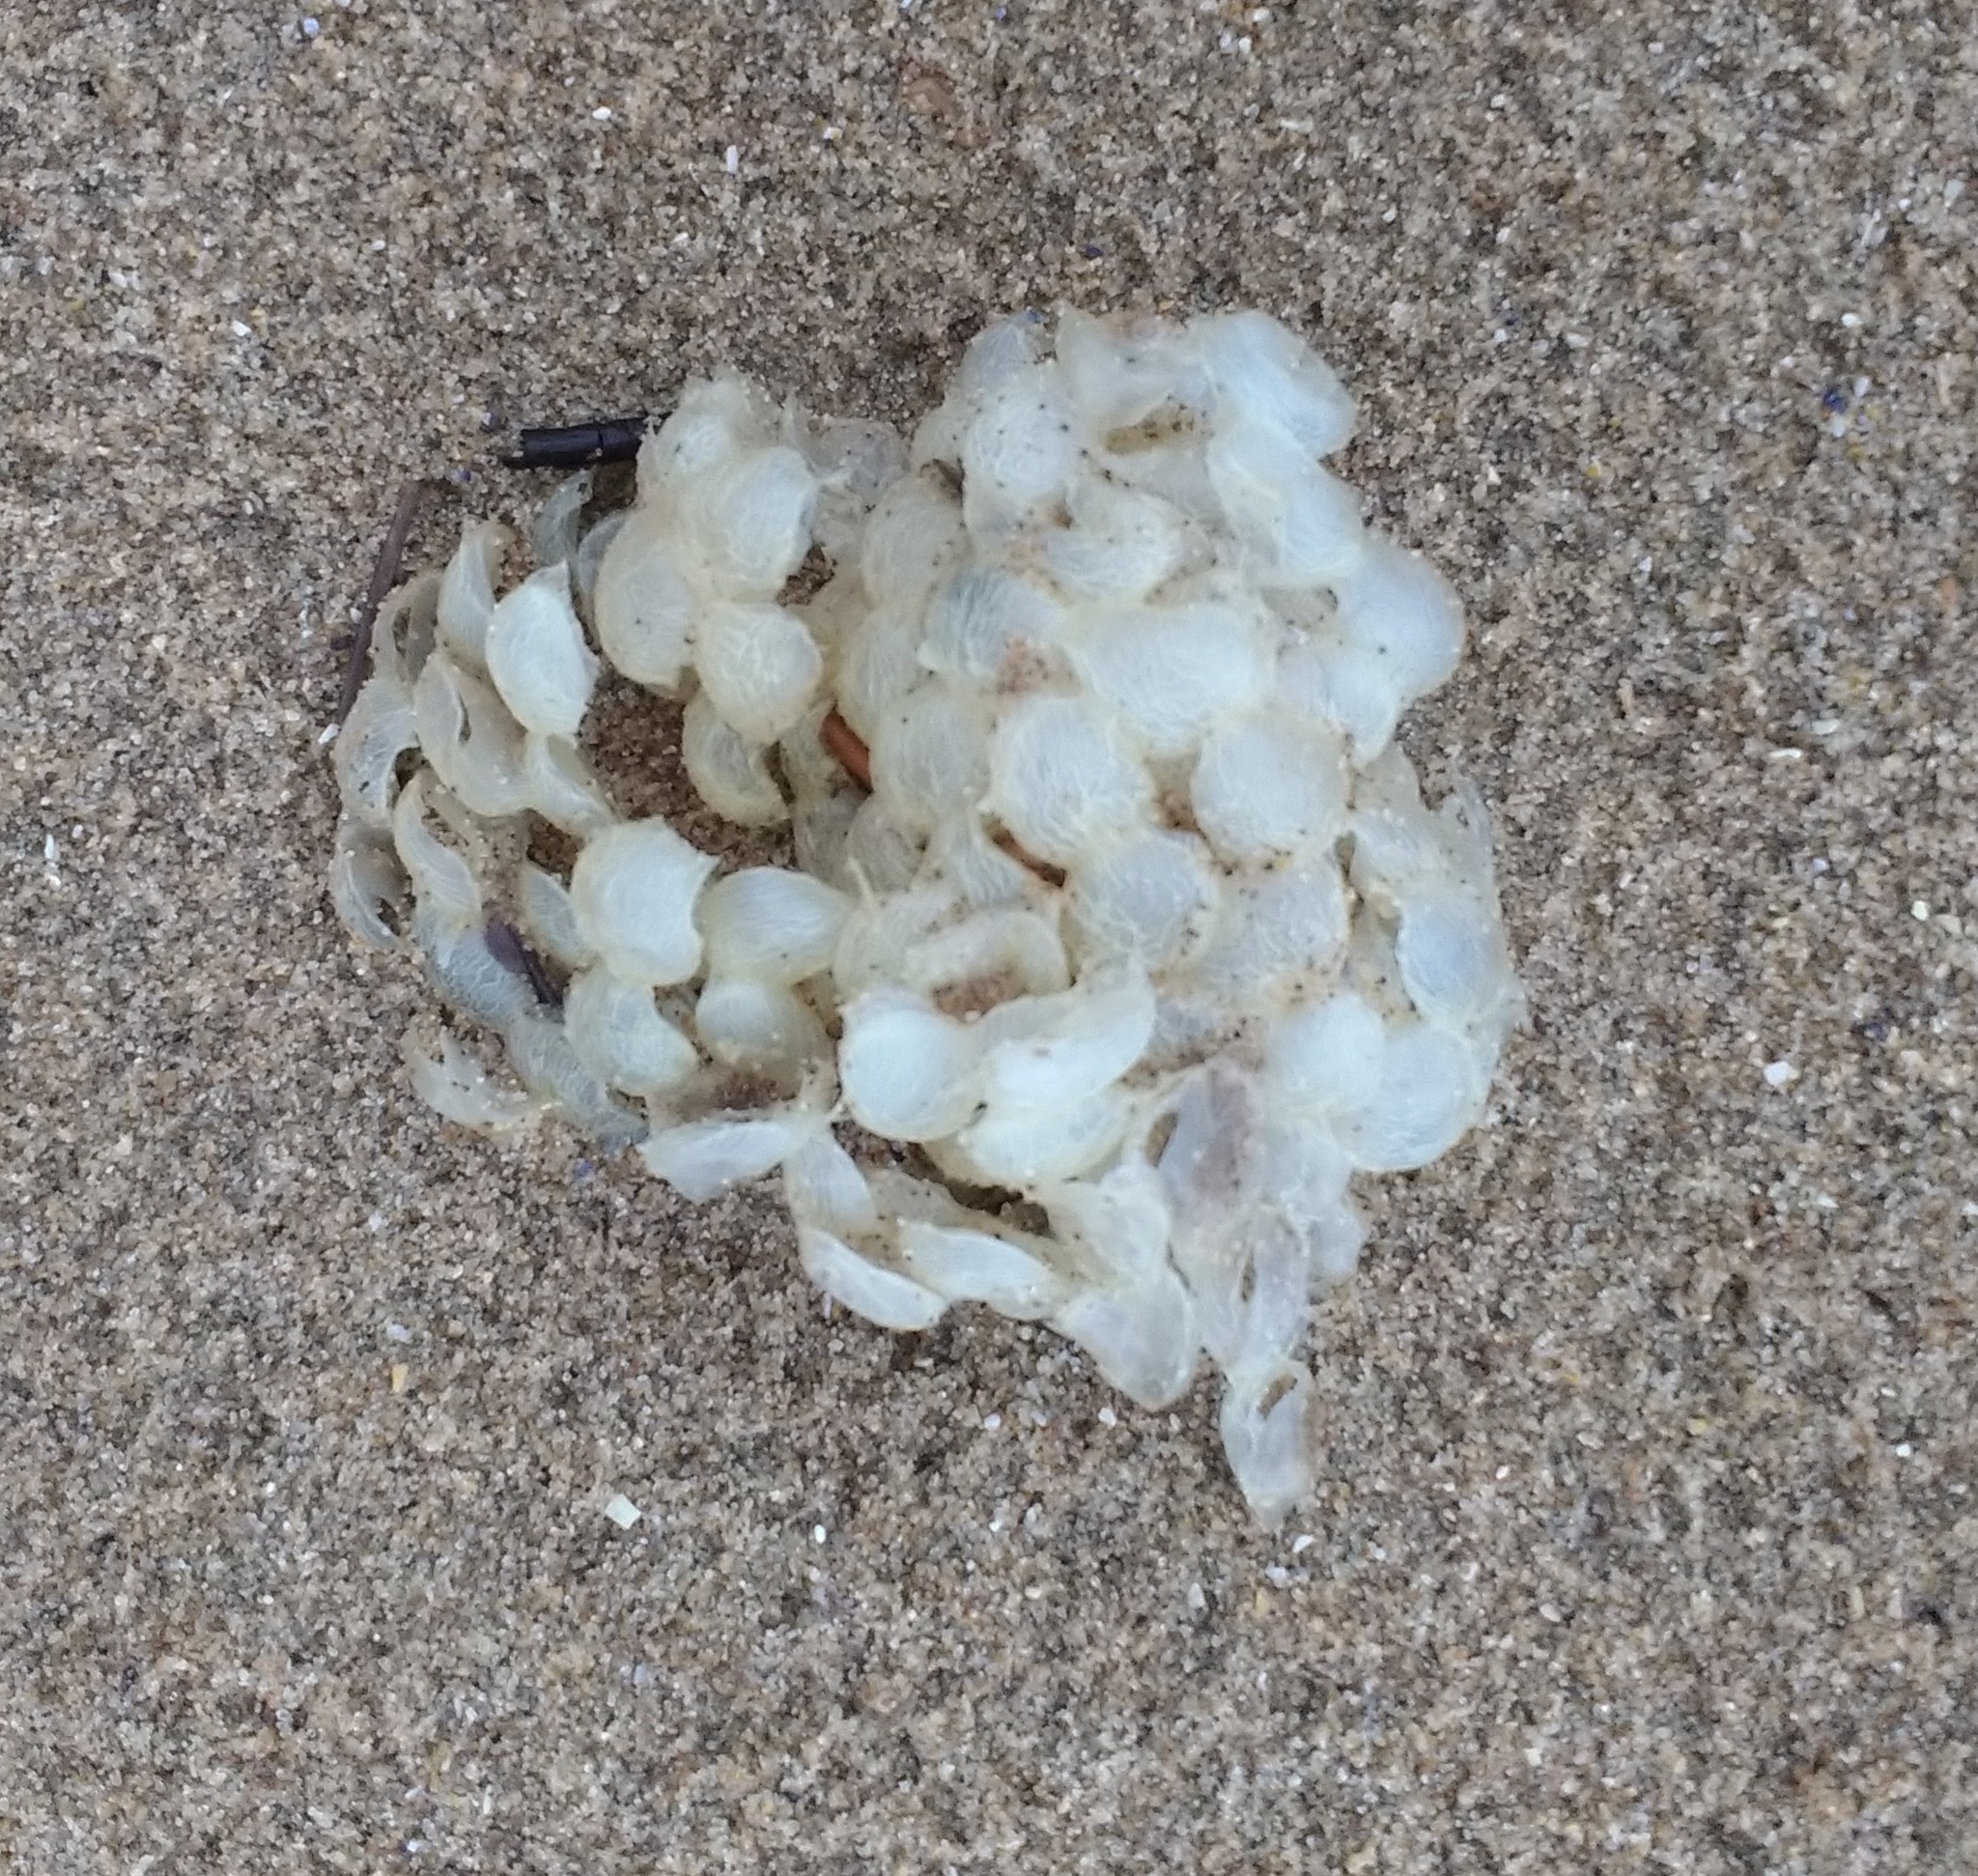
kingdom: Animalia
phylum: Mollusca
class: Gastropoda
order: Neogastropoda
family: Buccinidae
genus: Buccinum
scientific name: Buccinum undatum
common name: Common whelk
